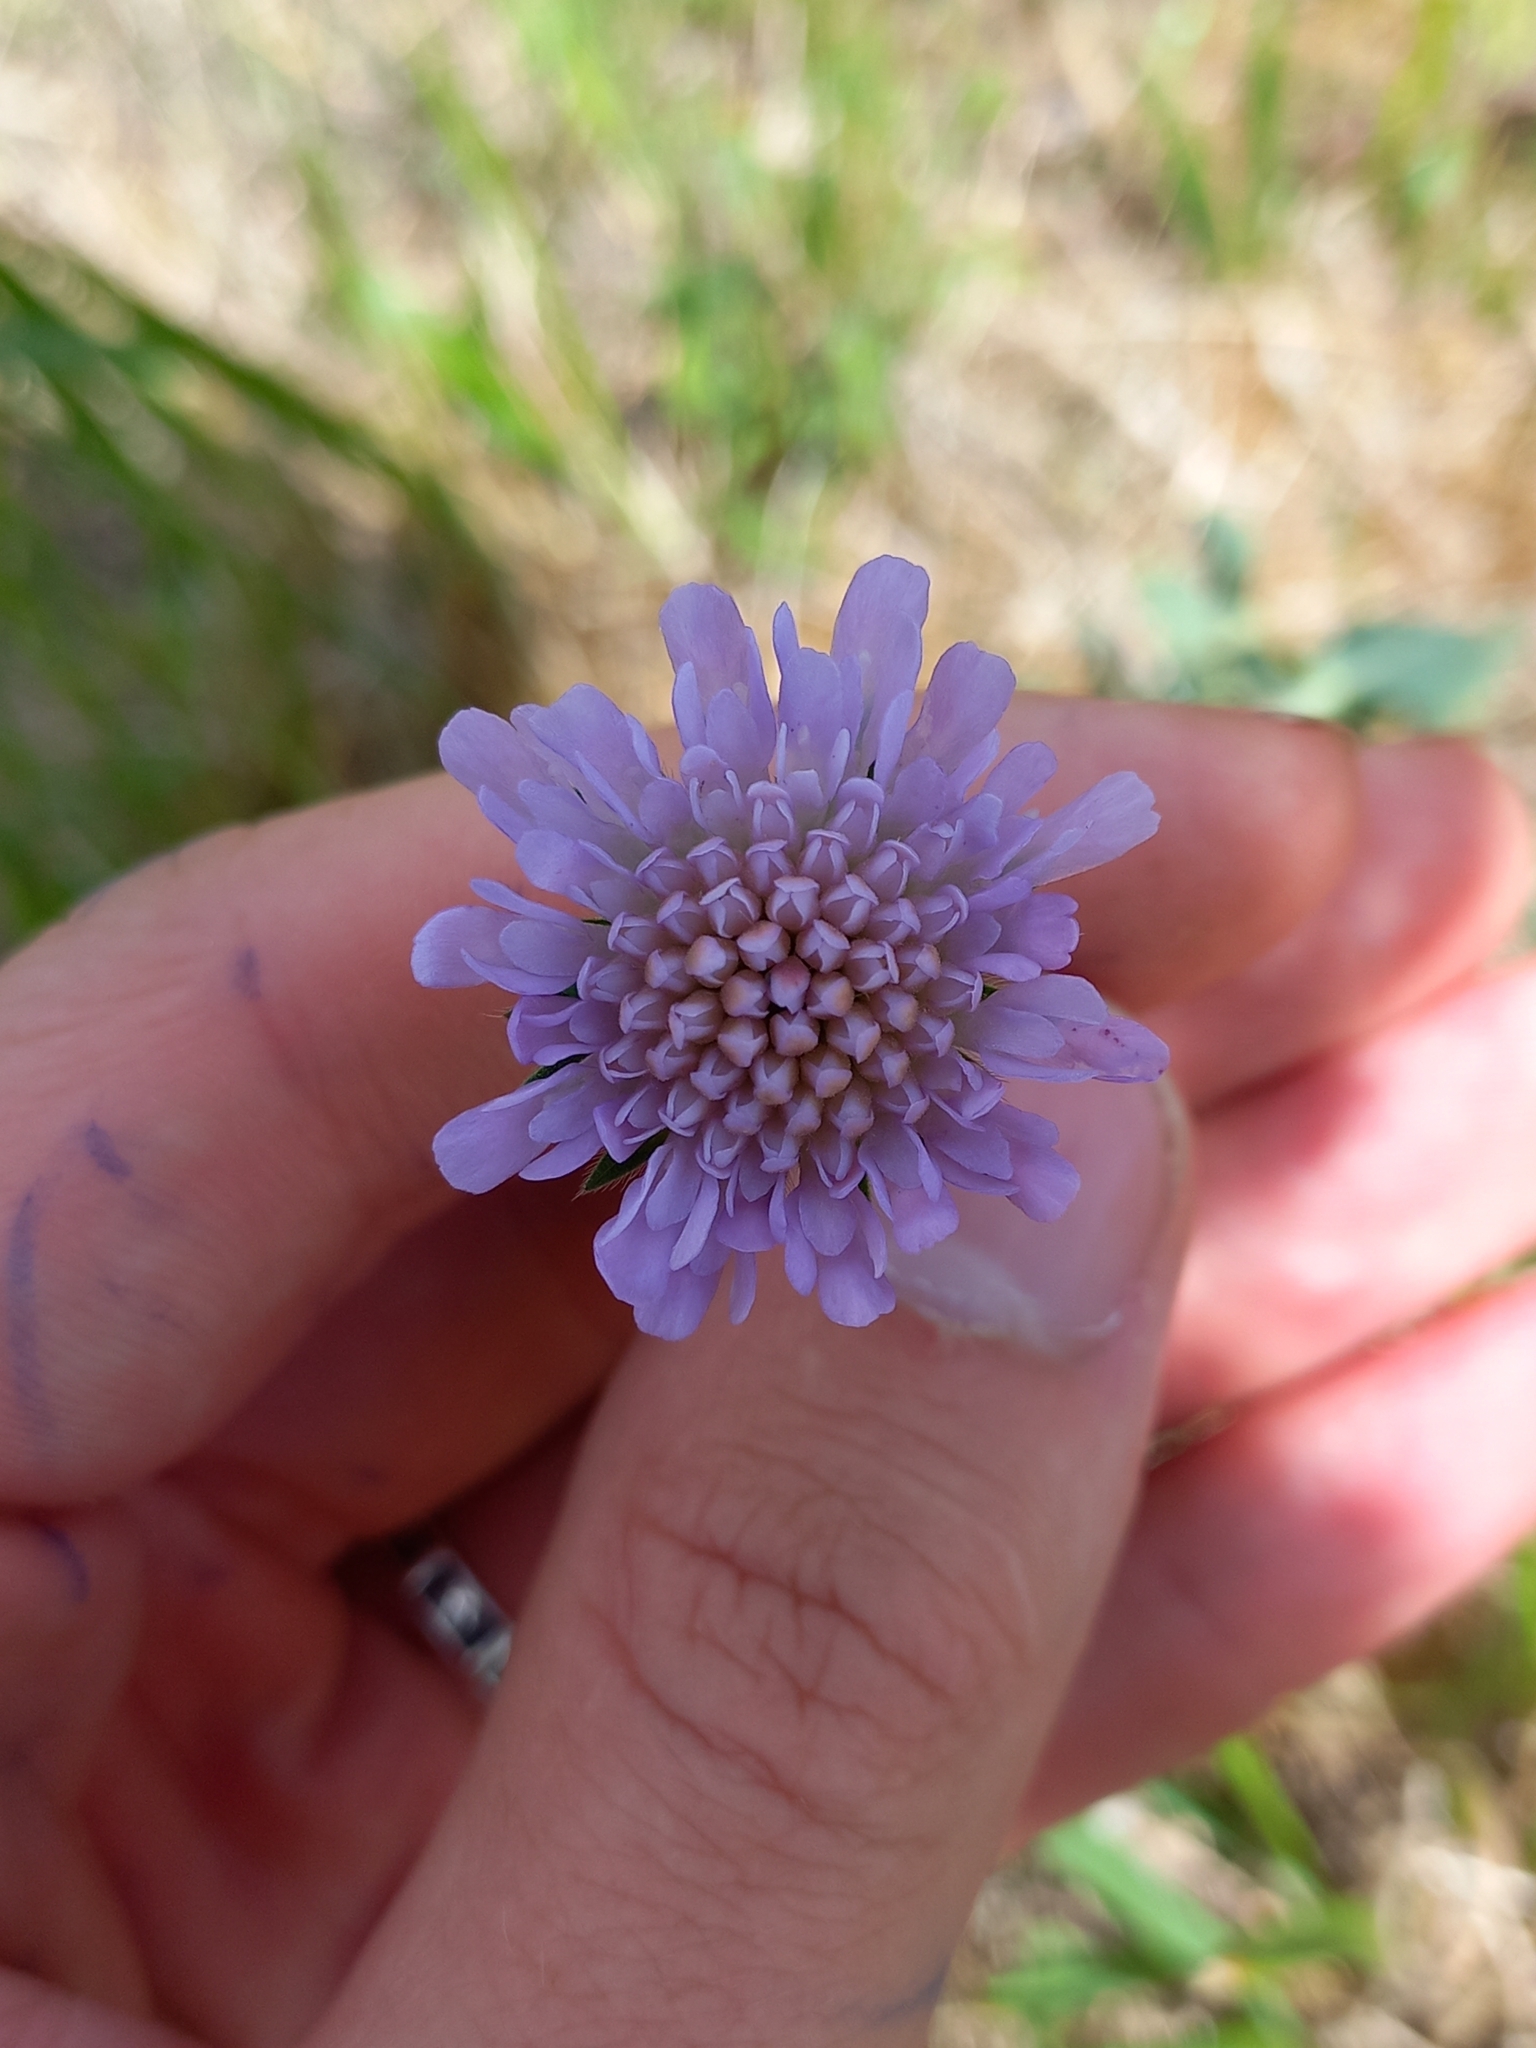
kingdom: Plantae
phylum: Tracheophyta
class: Magnoliopsida
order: Dipsacales
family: Caprifoliaceae
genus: Knautia
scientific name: Knautia arvensis
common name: Field scabiosa
